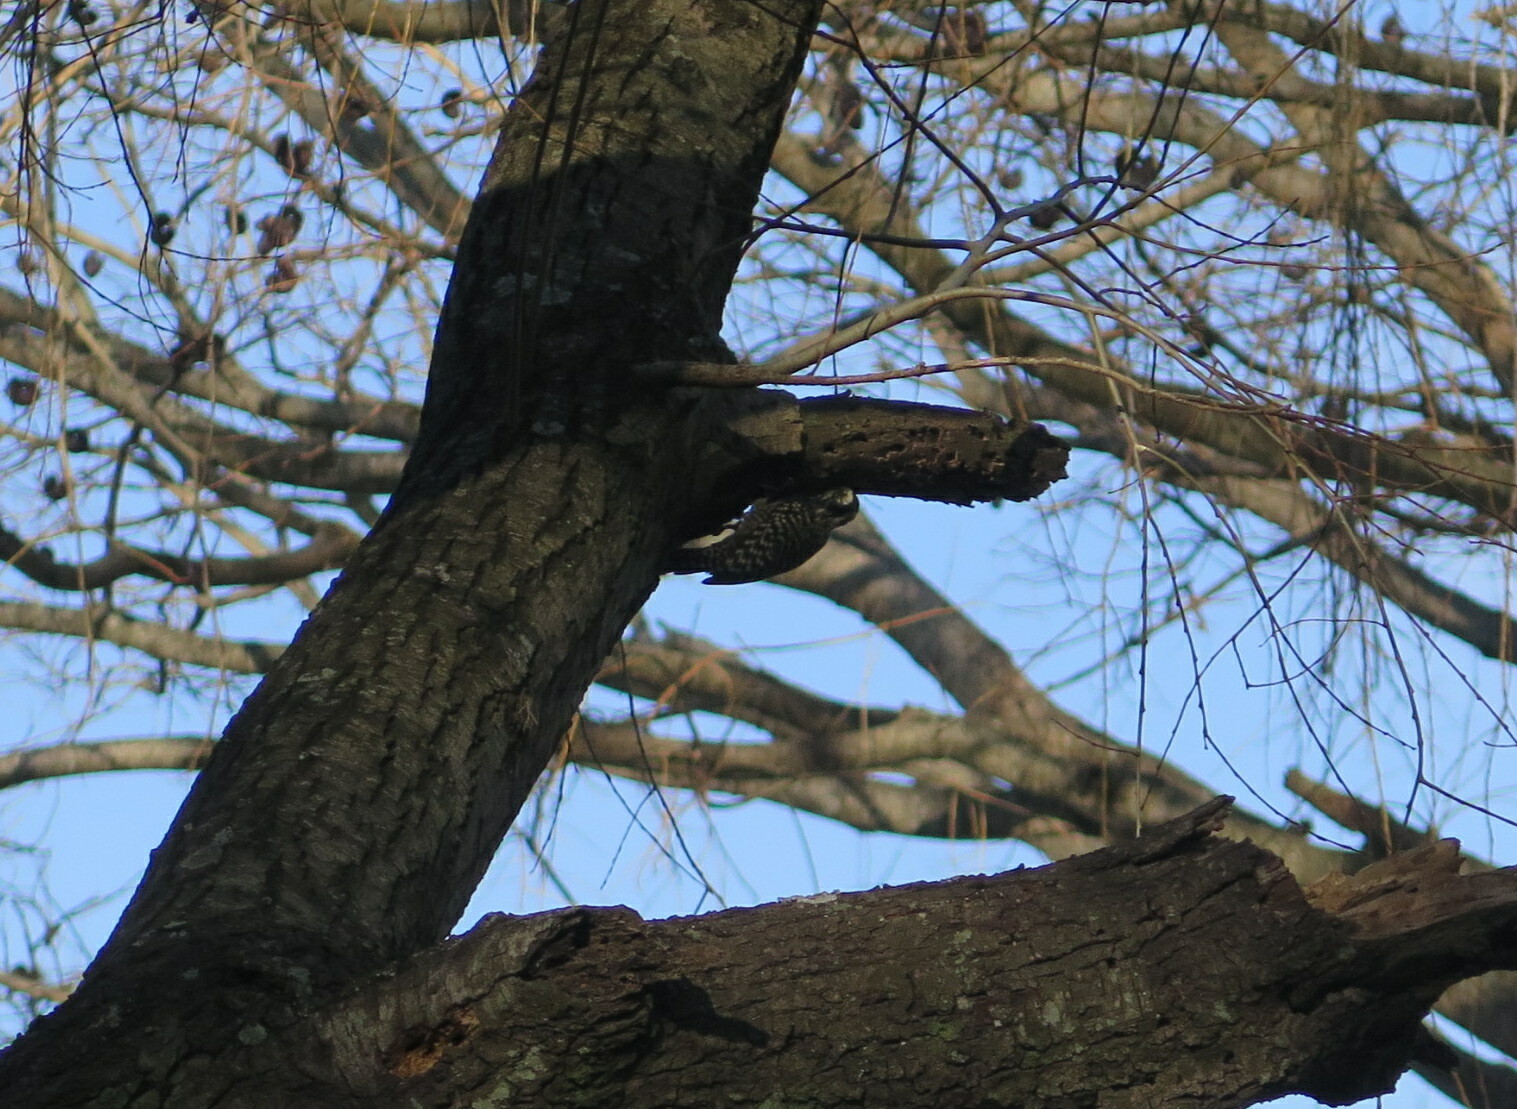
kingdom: Animalia
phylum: Chordata
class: Aves
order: Piciformes
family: Picidae
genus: Veniliornis
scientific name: Veniliornis mixtus
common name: Checkered woodpecker
